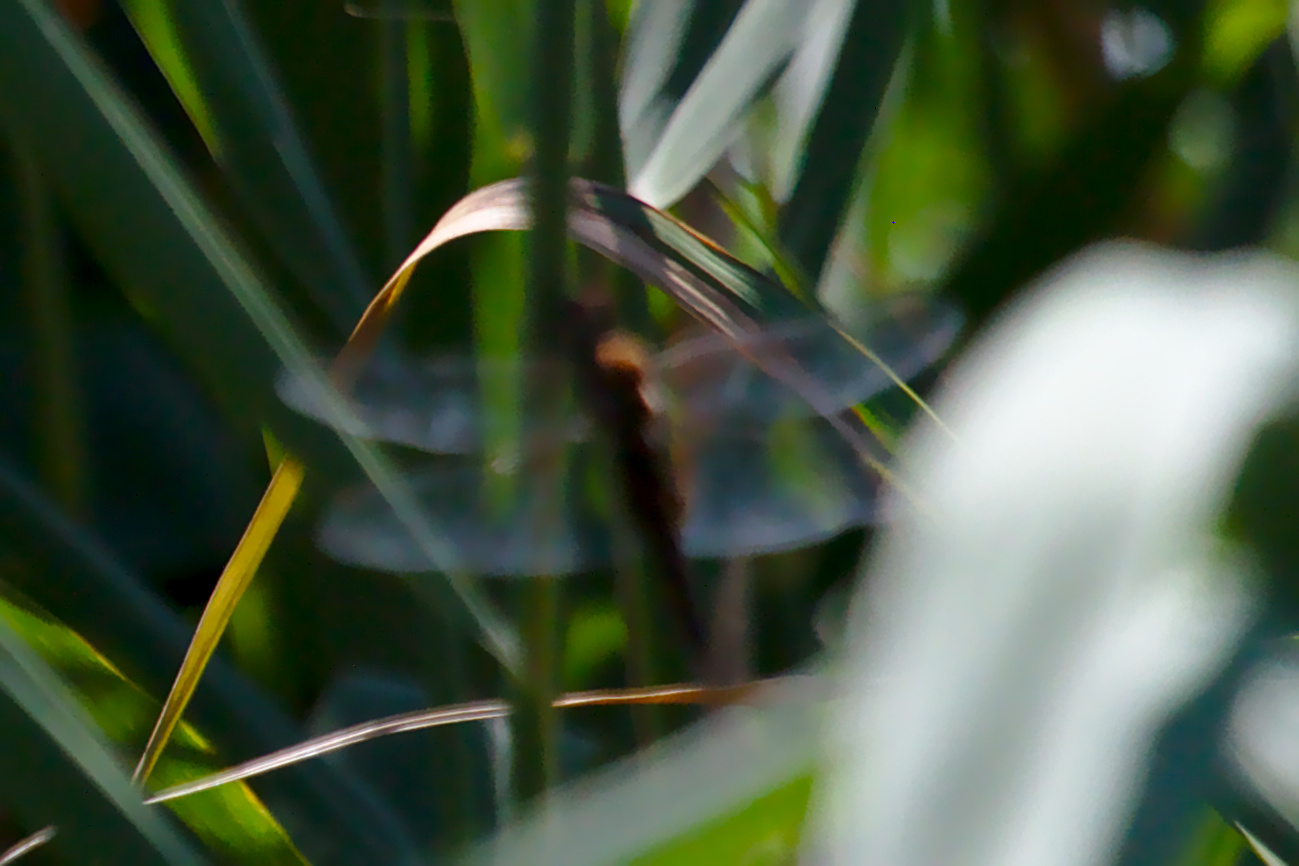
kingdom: Animalia
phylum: Arthropoda
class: Insecta
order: Odonata
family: Libellulidae
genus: Pantala
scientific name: Pantala hymenaea
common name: Spot-winged glider
